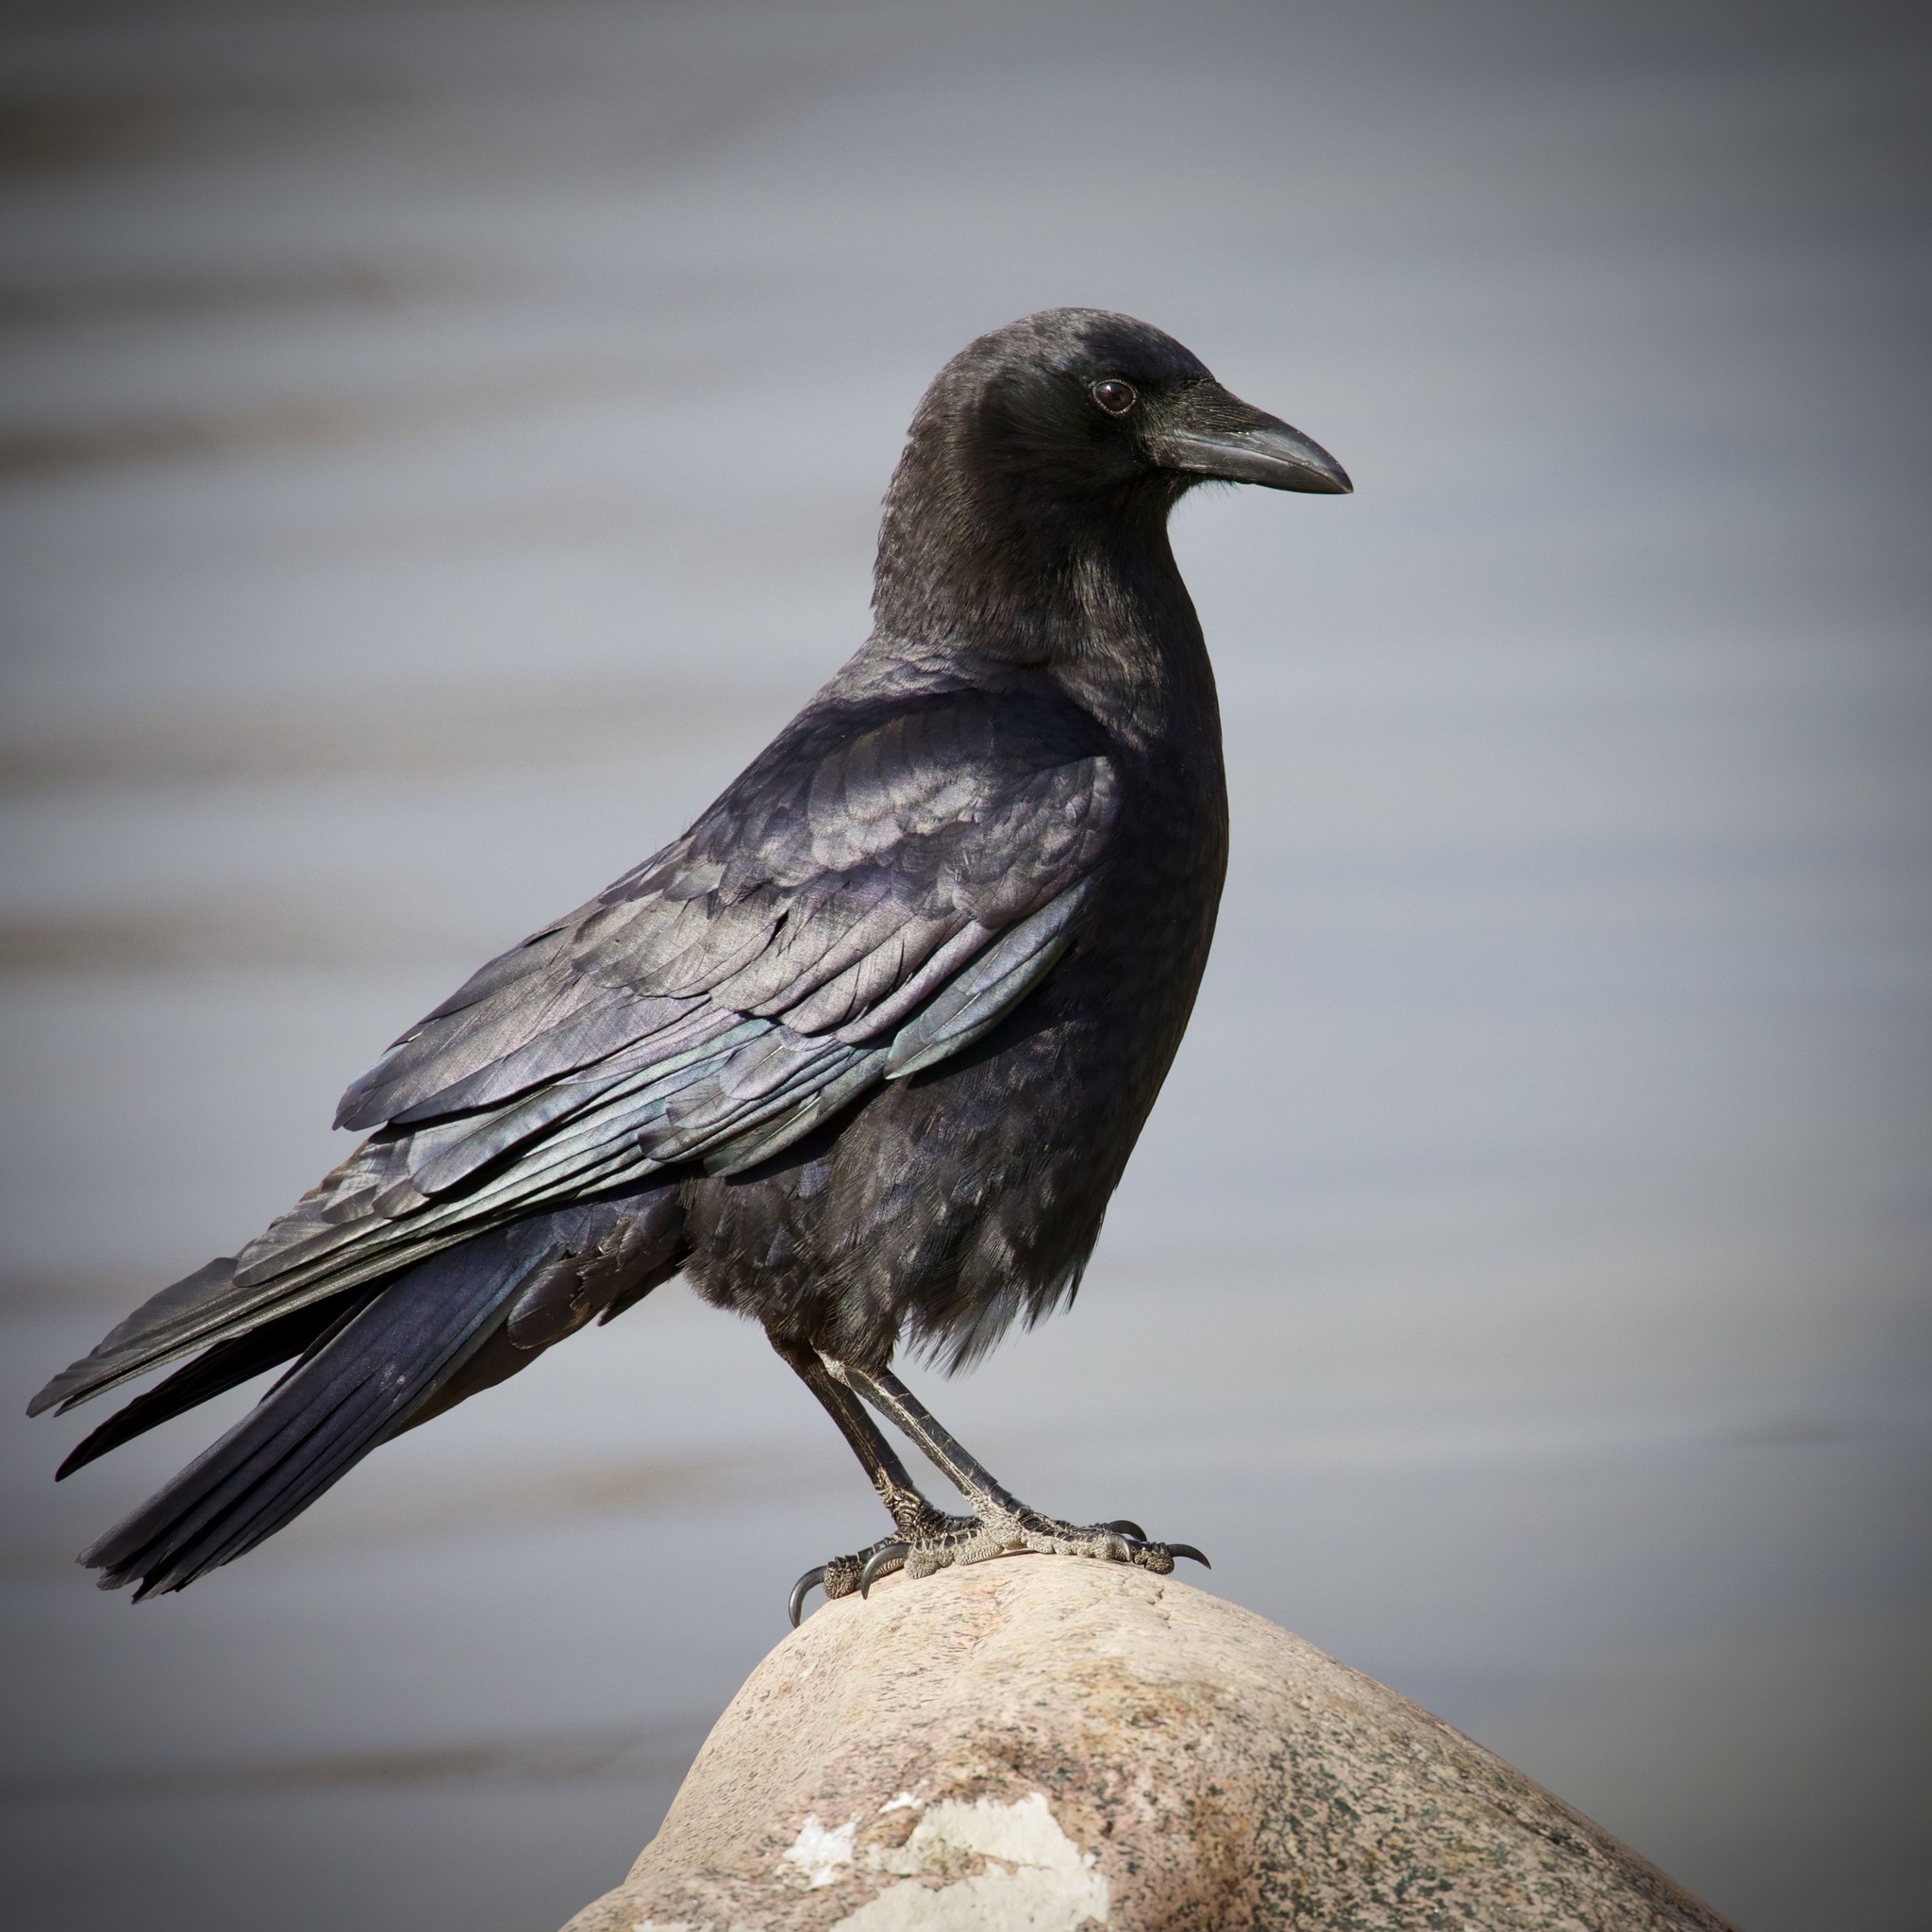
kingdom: Animalia
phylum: Chordata
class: Aves
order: Passeriformes
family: Corvidae
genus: Corvus
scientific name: Corvus brachyrhynchos
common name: American crow
